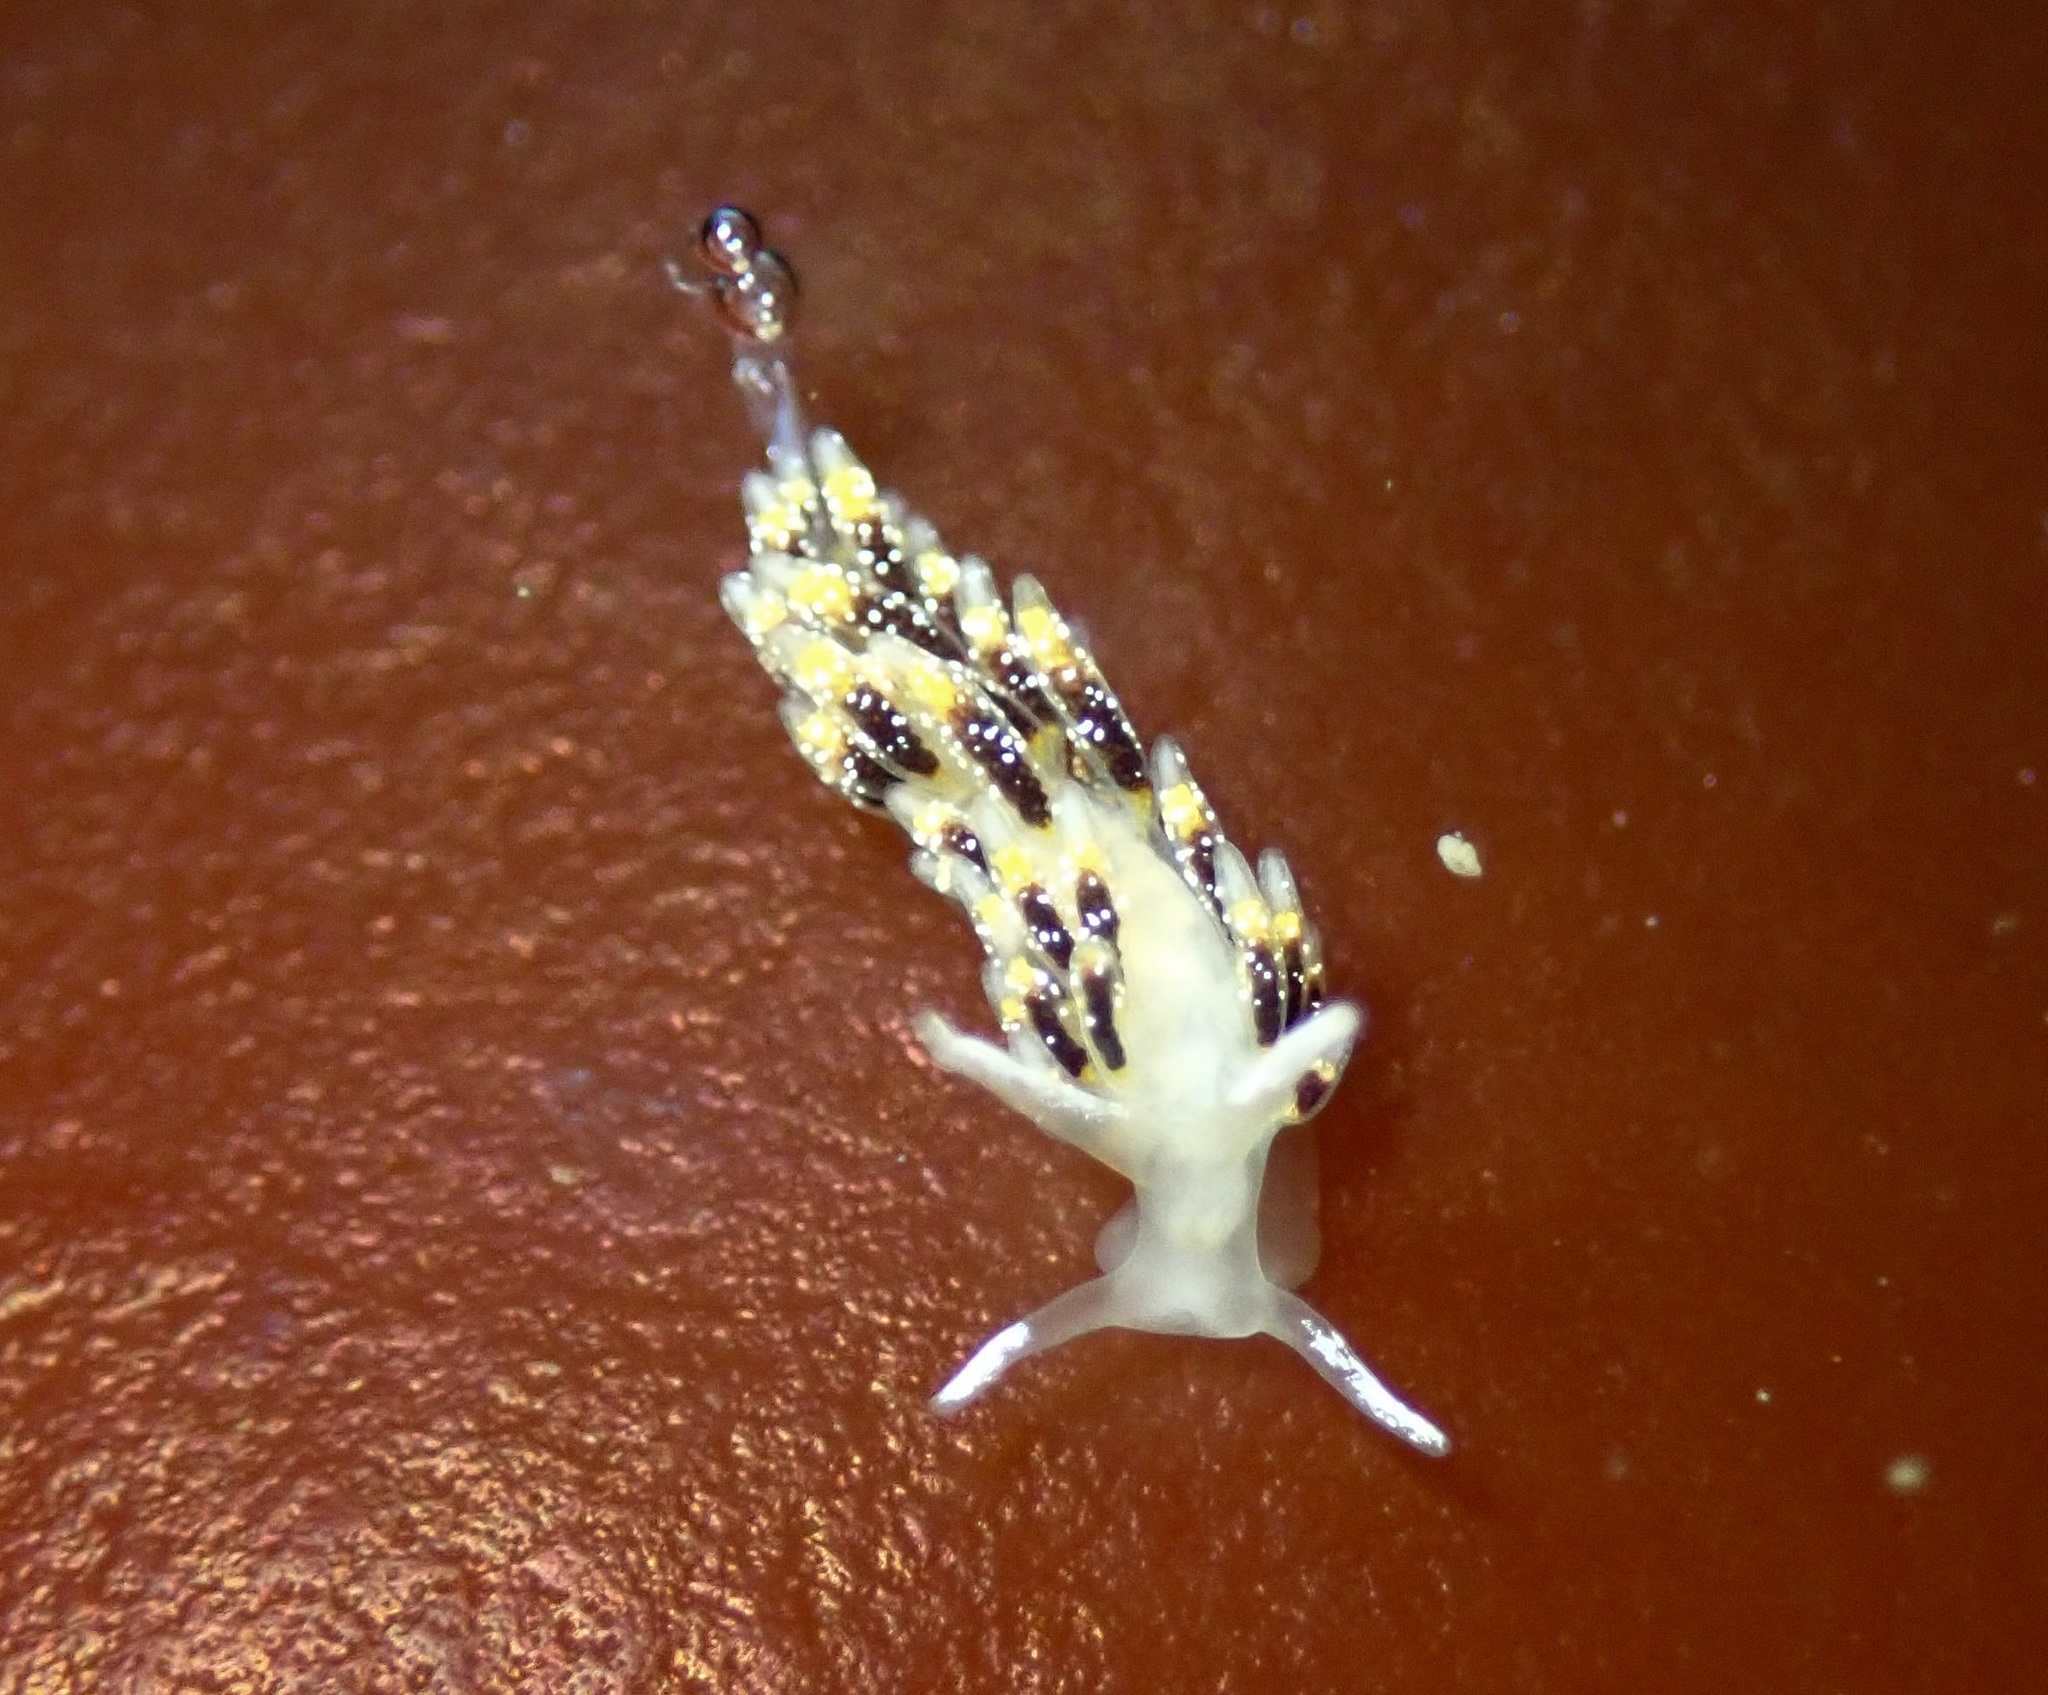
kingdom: Animalia
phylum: Mollusca
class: Gastropoda
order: Nudibranchia
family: Trinchesiidae
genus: Zelentia
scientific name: Zelentia fulgens
